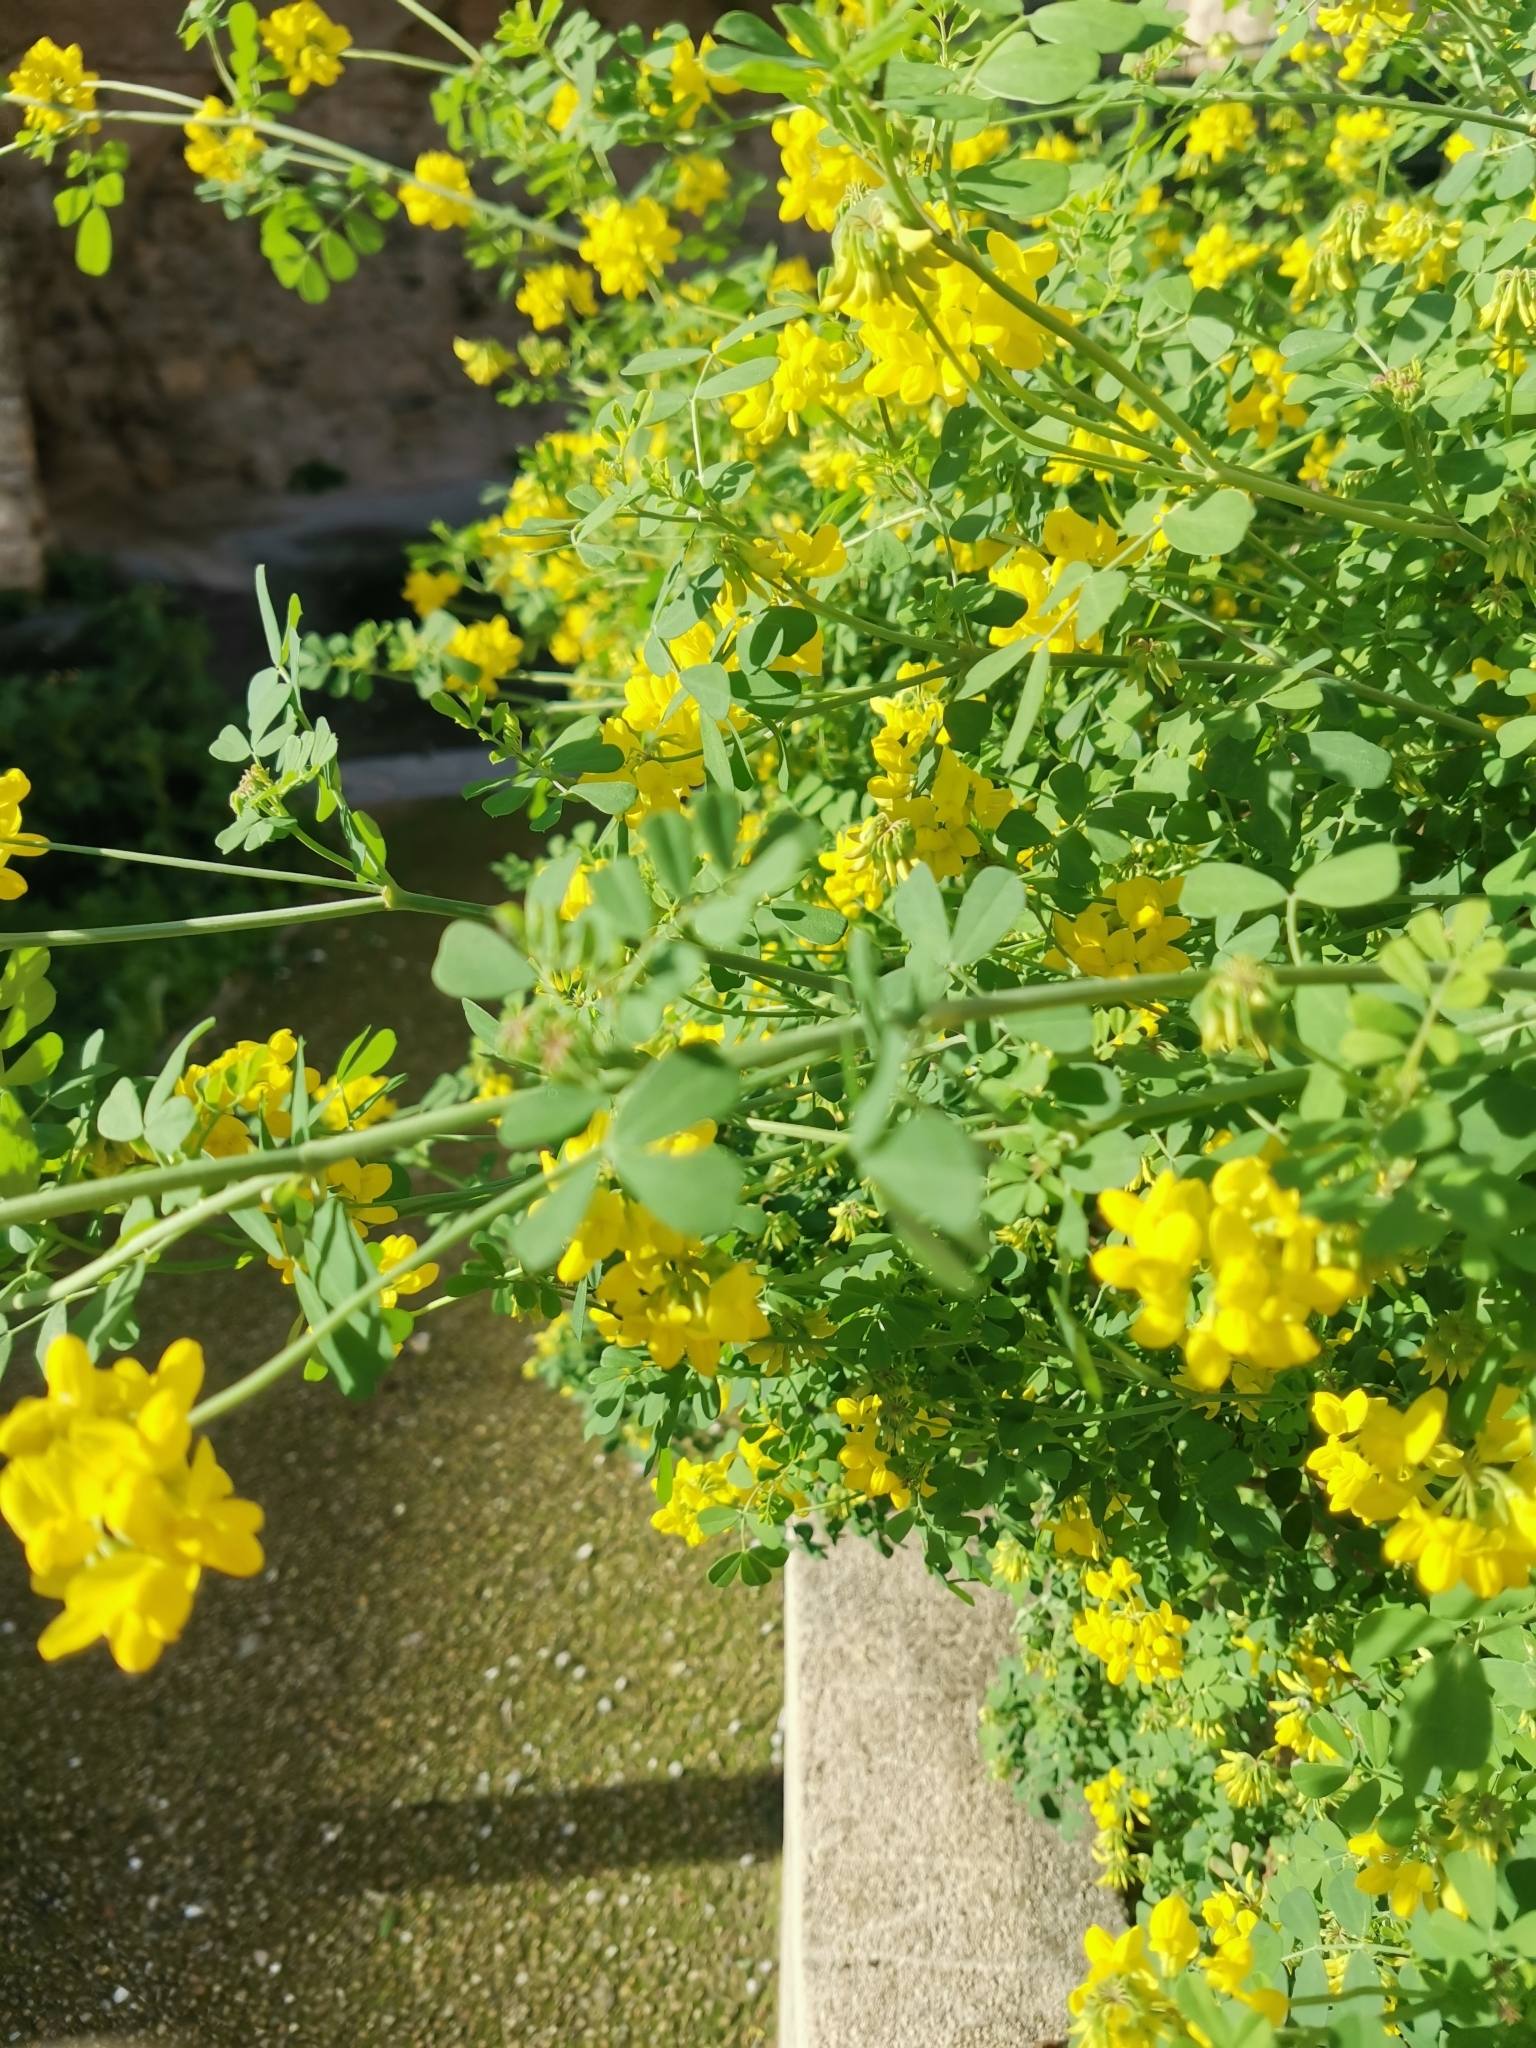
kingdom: Plantae
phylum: Tracheophyta
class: Magnoliopsida
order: Fabales
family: Fabaceae
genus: Coronilla
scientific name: Coronilla valentina
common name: Shrubby scorpion-vetch
